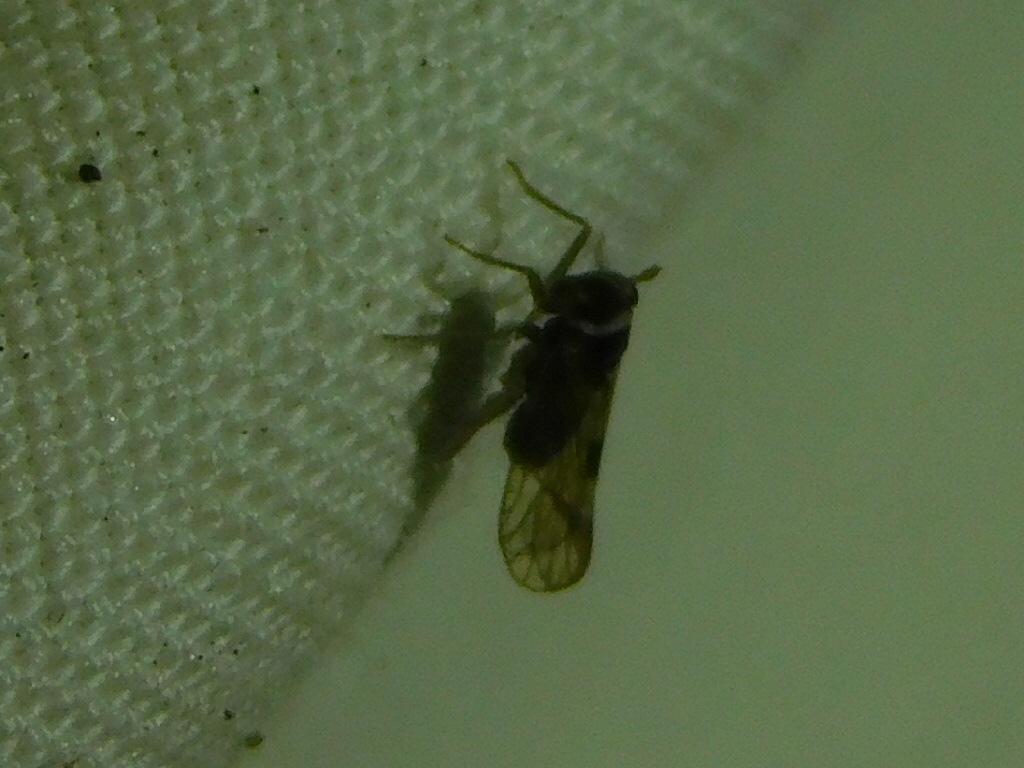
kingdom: Animalia
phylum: Arthropoda
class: Insecta
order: Hemiptera
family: Delphacidae
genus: Chionomus
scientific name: Chionomus
